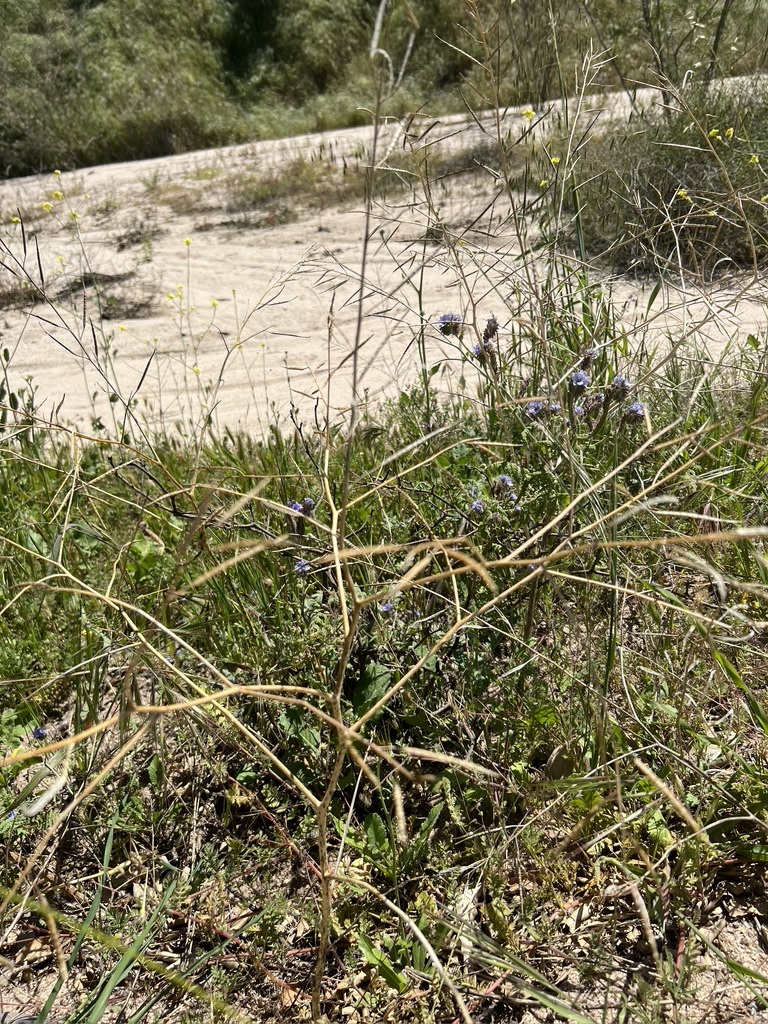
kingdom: Plantae
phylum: Tracheophyta
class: Magnoliopsida
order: Brassicales
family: Brassicaceae
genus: Brassica
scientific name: Brassica tournefortii
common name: Pale cabbage
